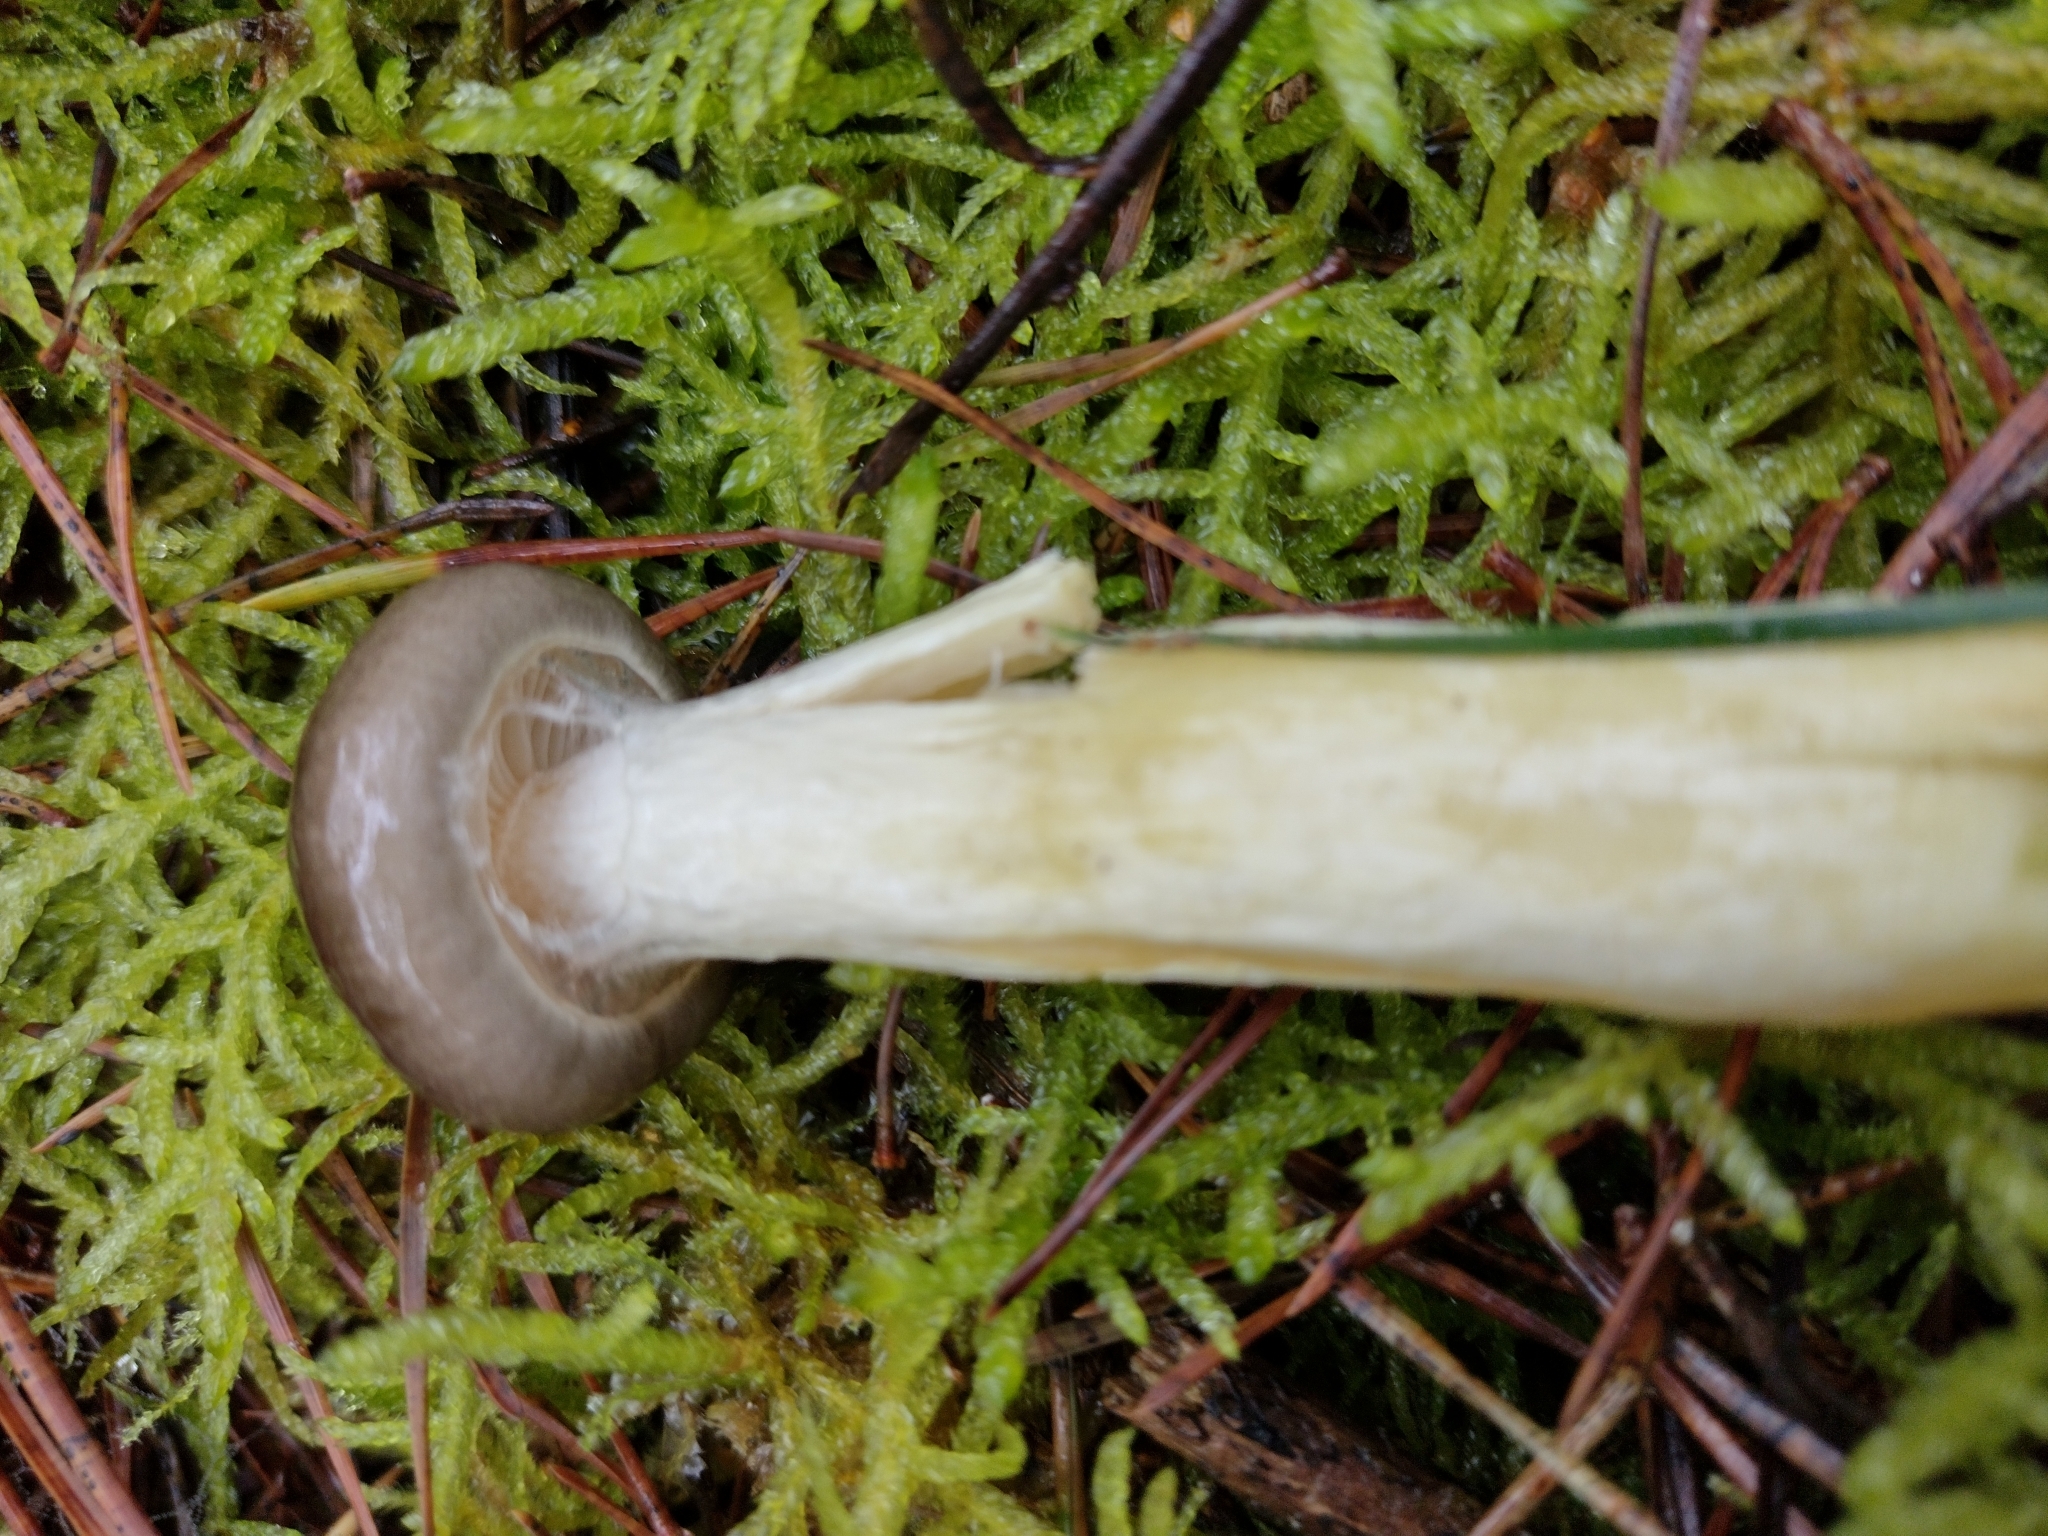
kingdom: Fungi
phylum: Basidiomycota
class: Agaricomycetes
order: Agaricales
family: Hygrophoraceae
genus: Hygrophorus
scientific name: Hygrophorus hypothejus
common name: Herald of winter
